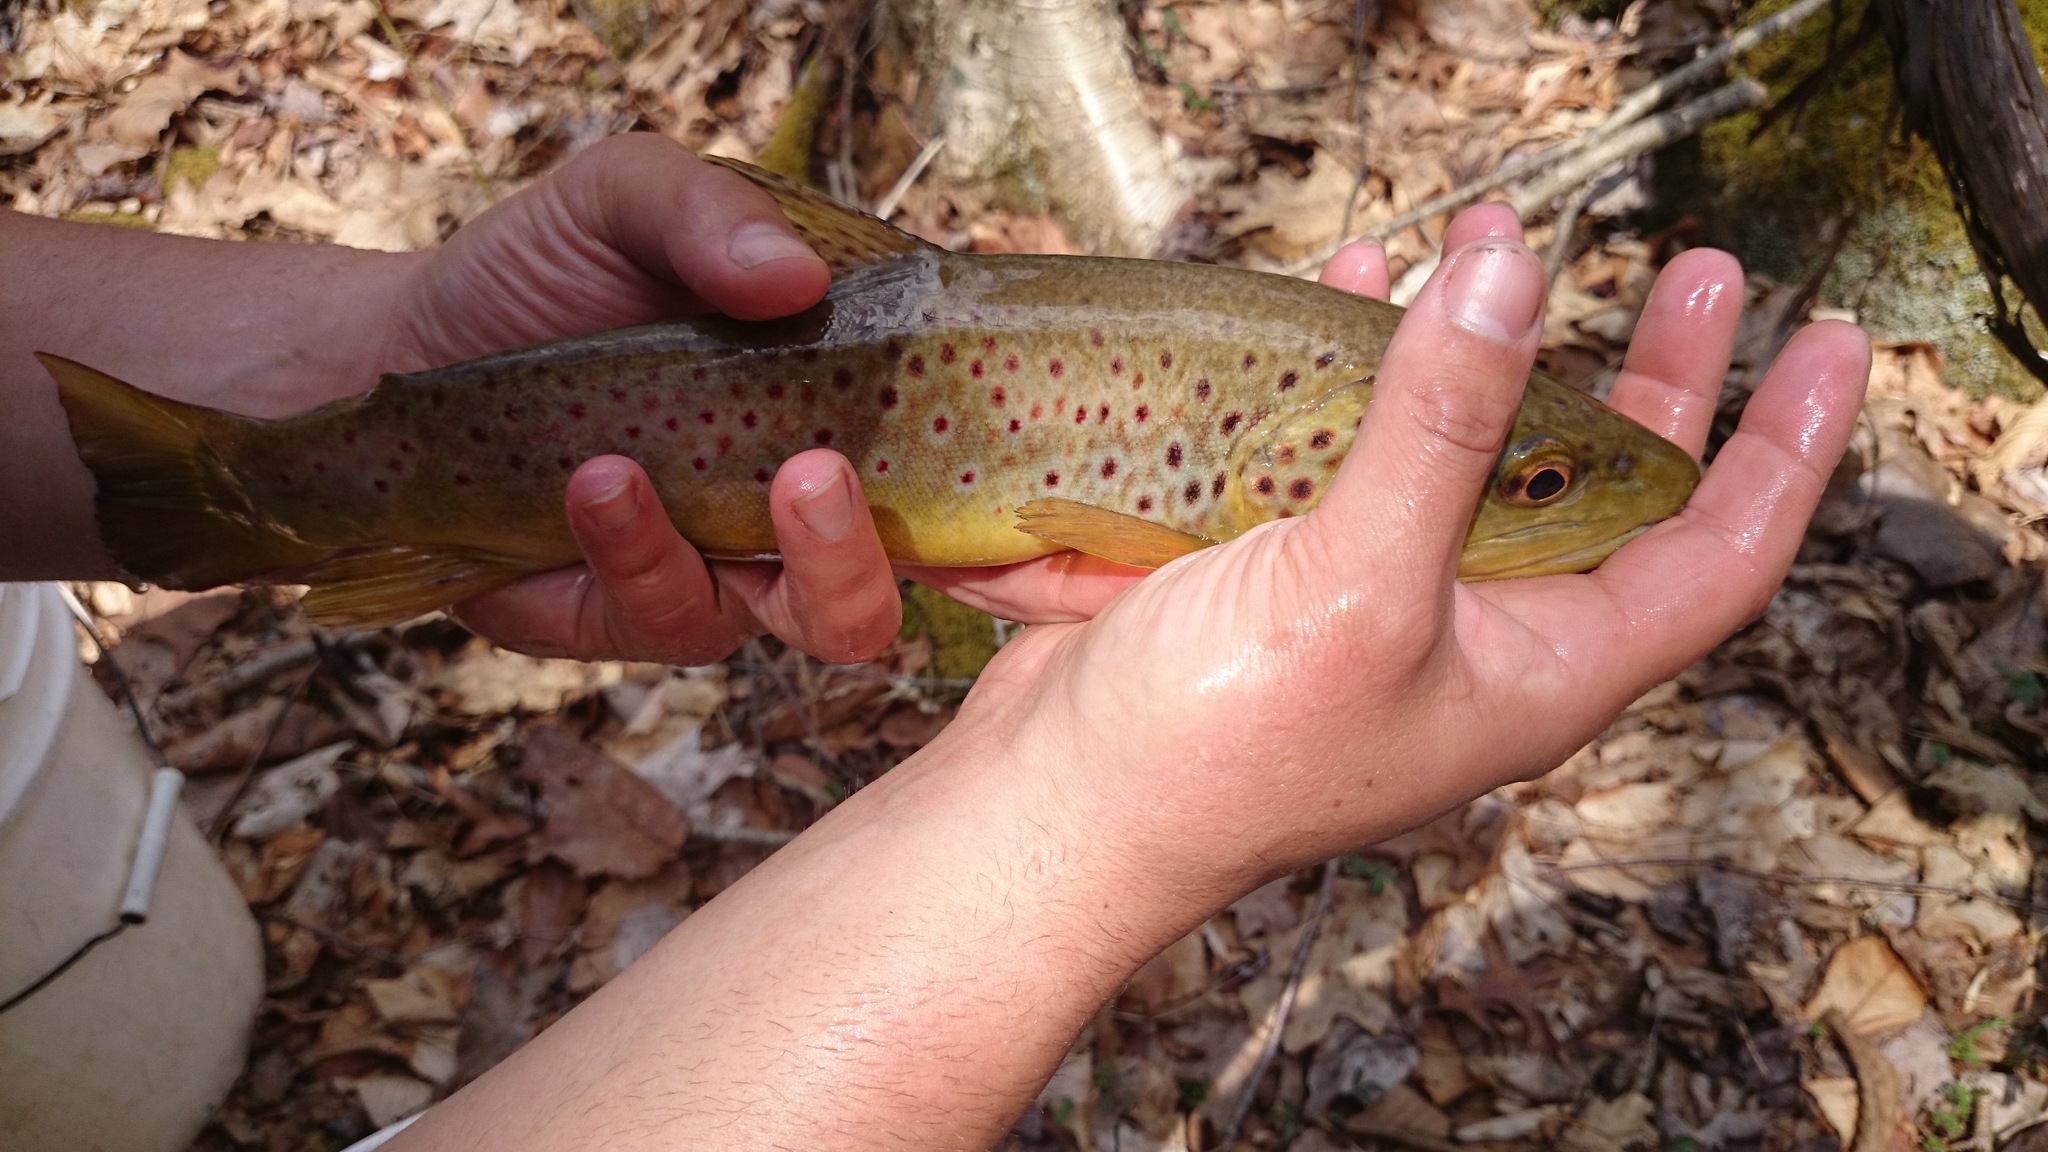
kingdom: Animalia
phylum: Chordata
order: Salmoniformes
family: Salmonidae
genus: Salmo
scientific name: Salmo trutta
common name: Brown trout
